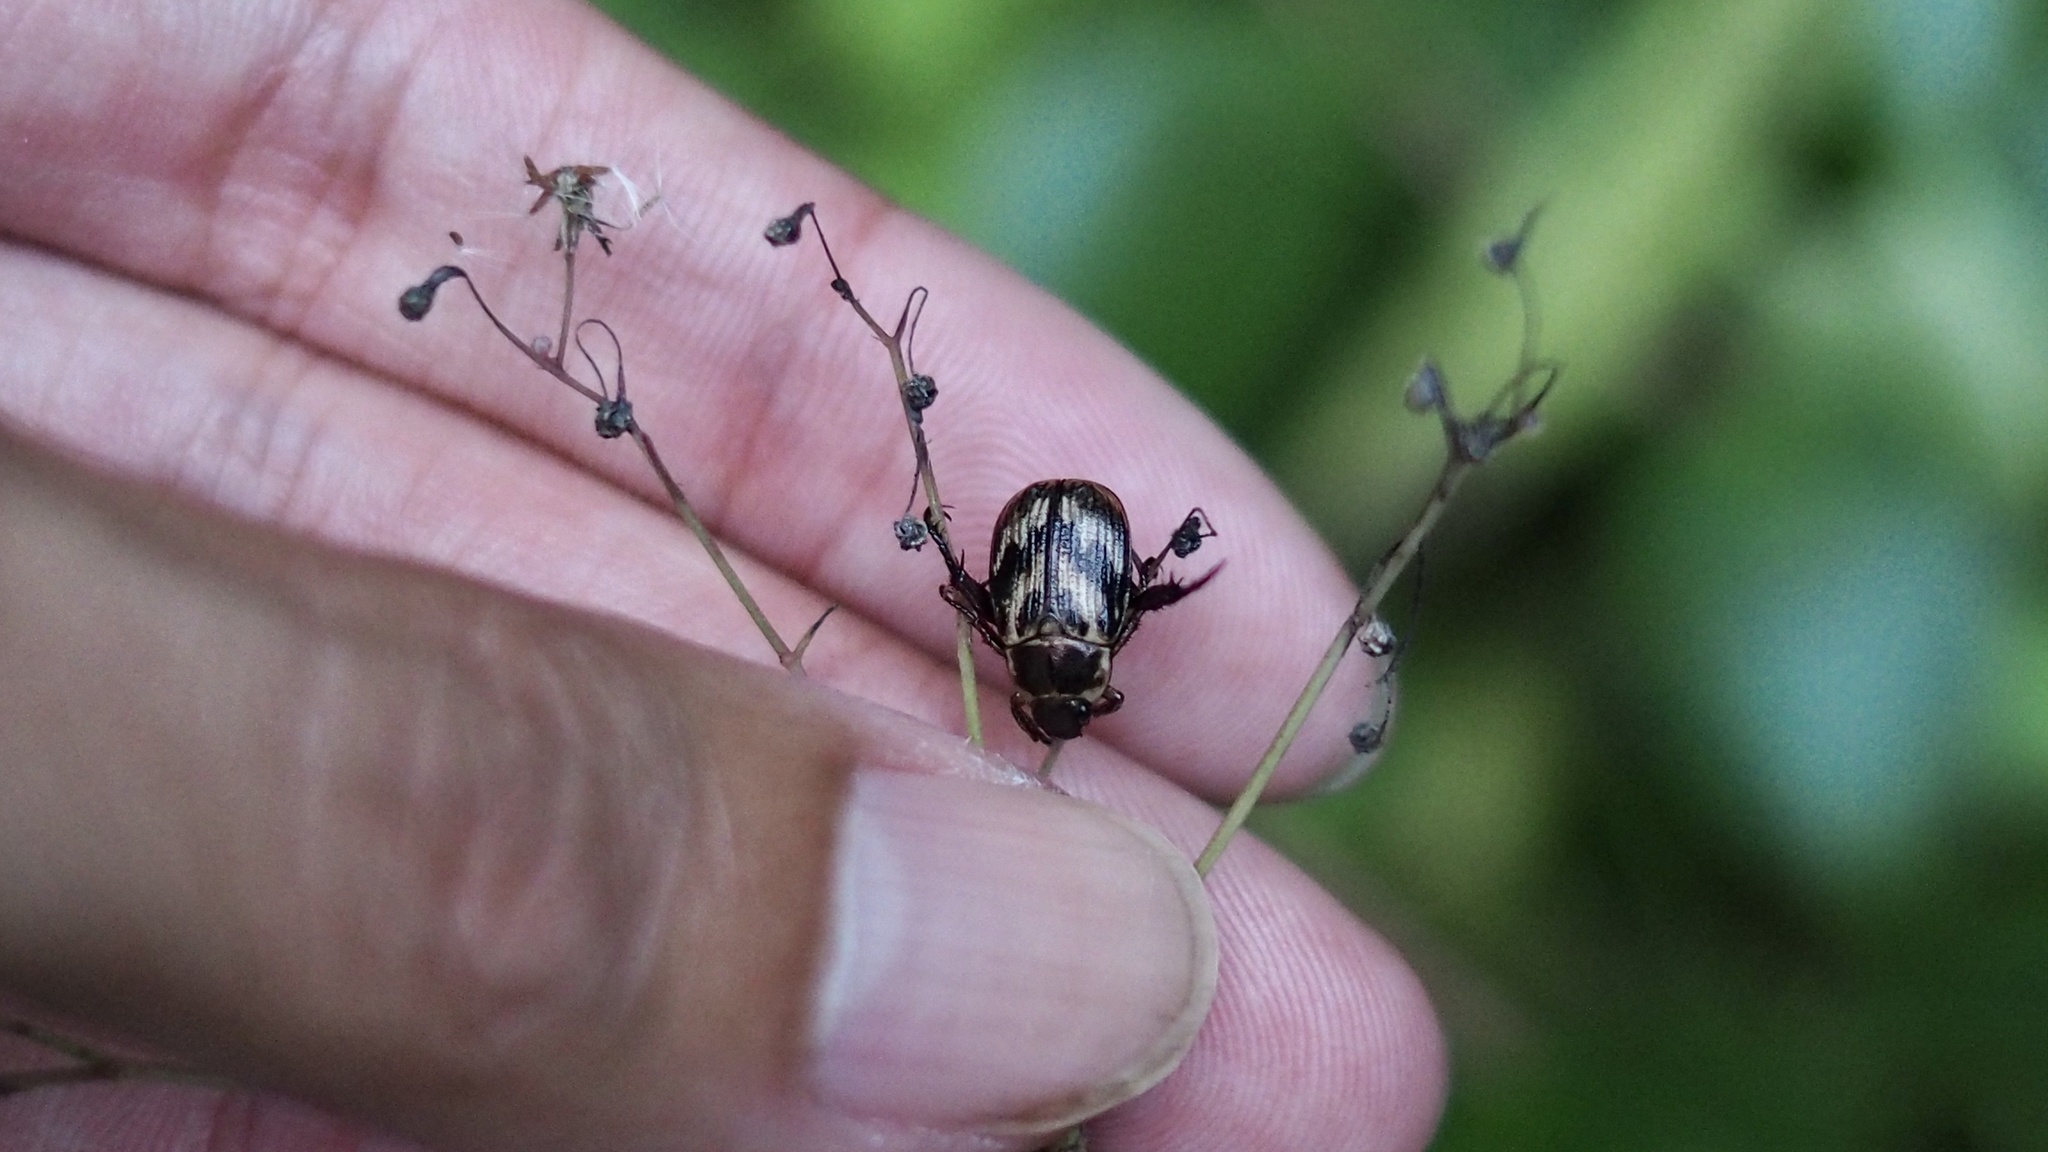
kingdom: Animalia
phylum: Arthropoda
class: Insecta
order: Coleoptera
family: Scarabaeidae
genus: Exomala
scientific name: Exomala orientalis
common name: Oriental beetle
